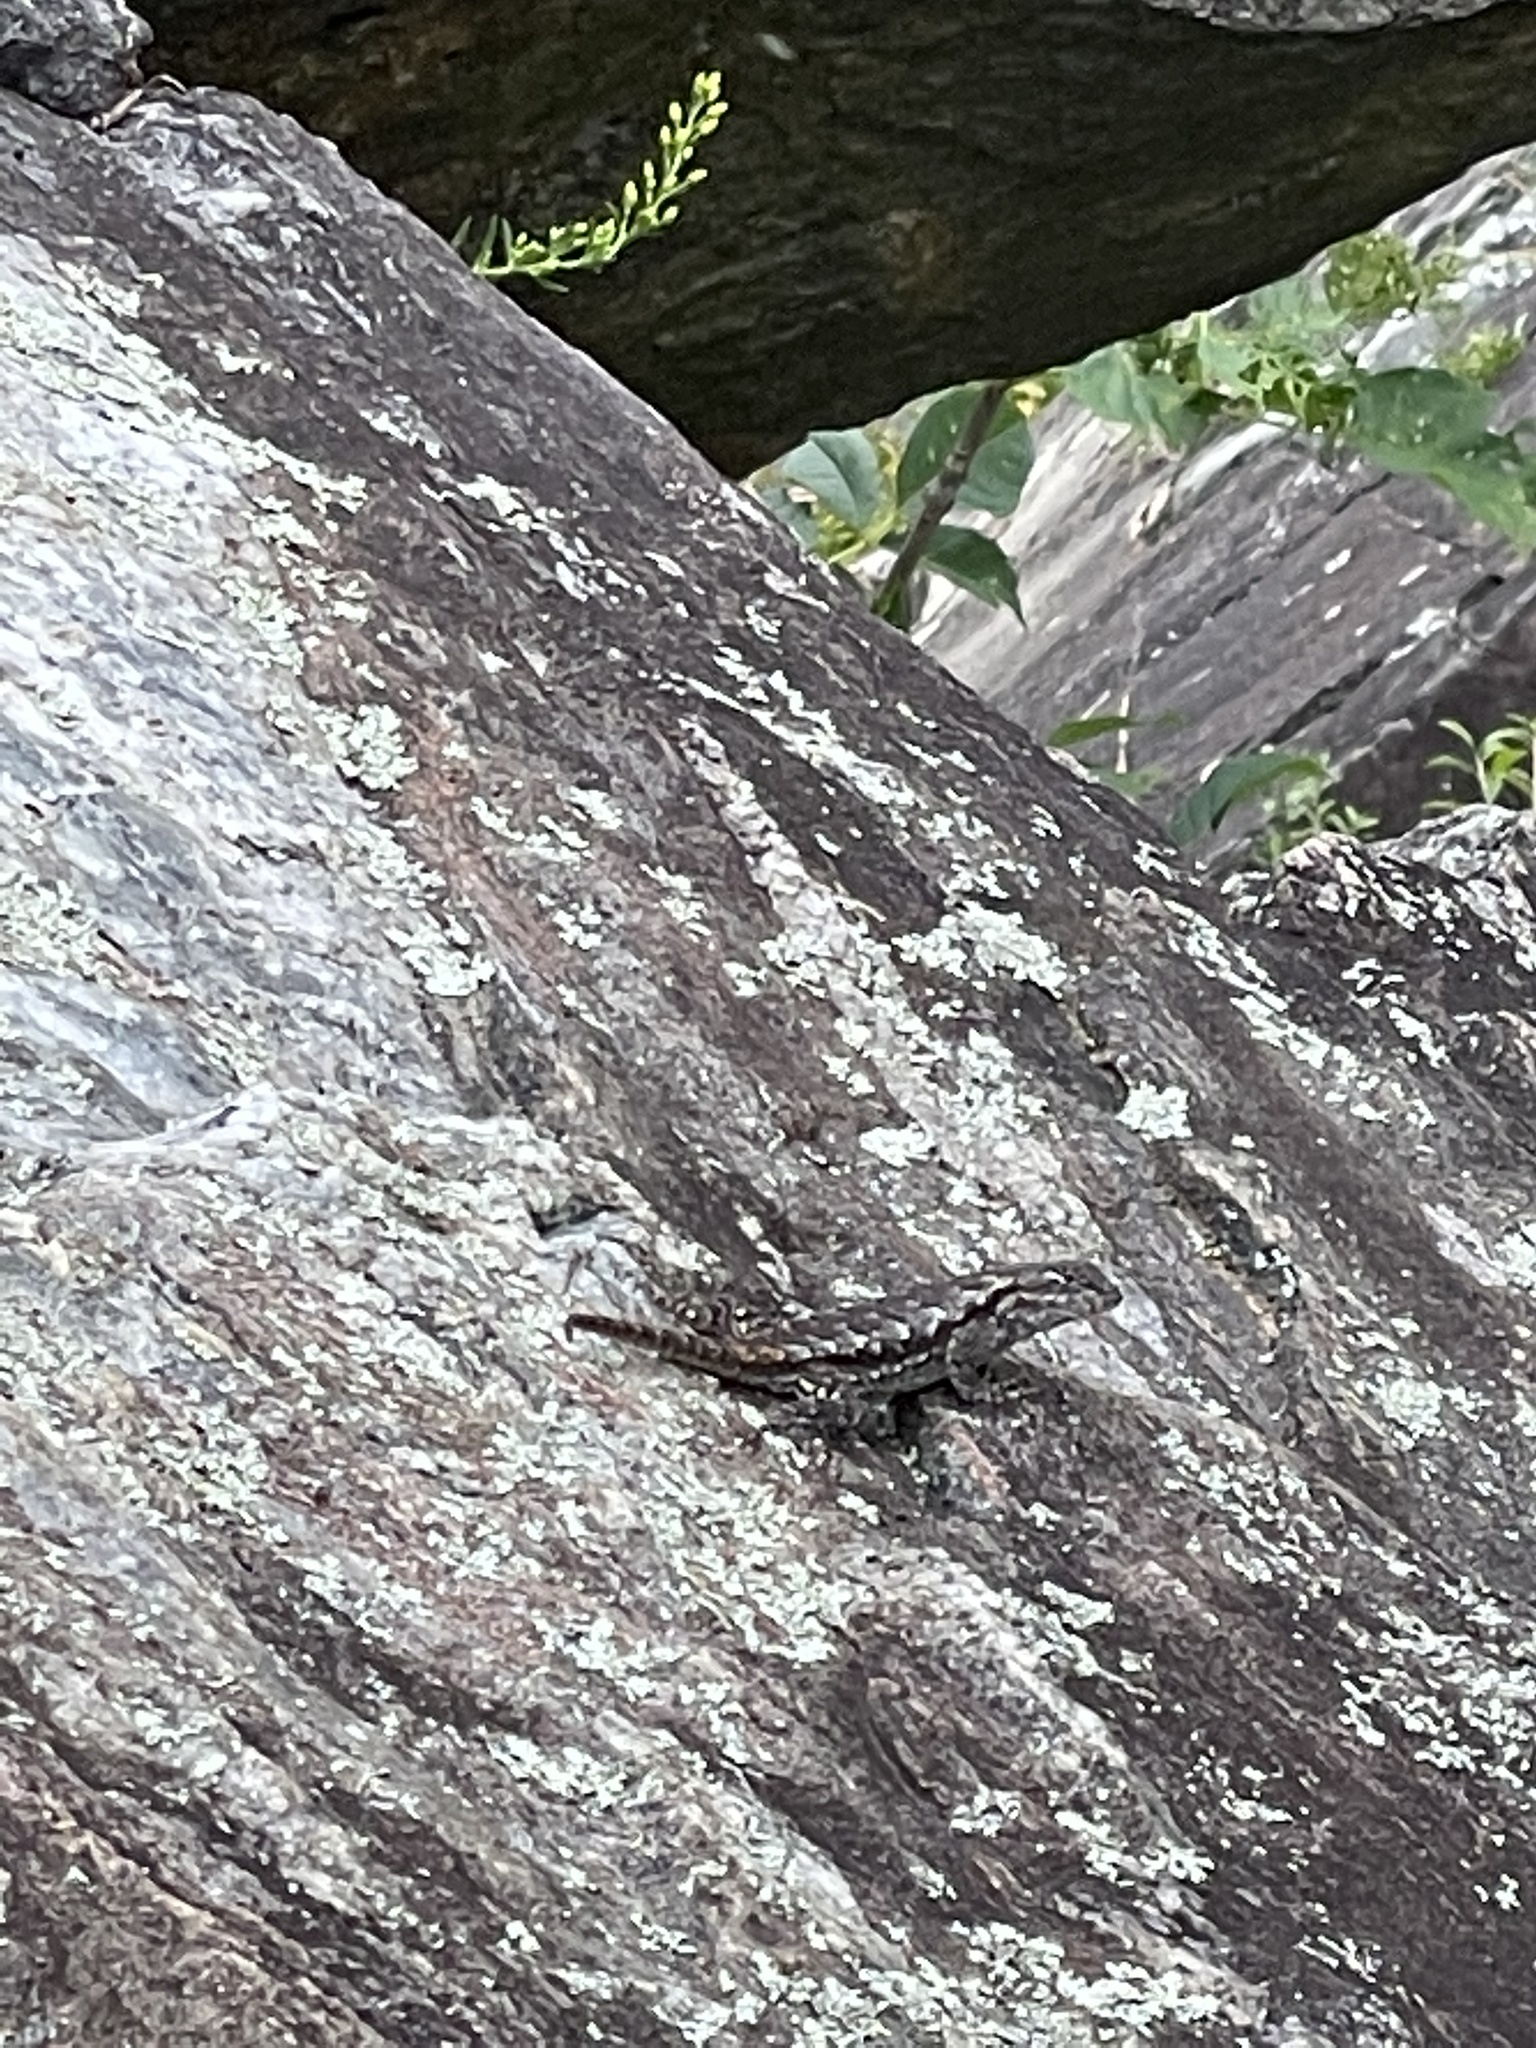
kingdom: Animalia
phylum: Chordata
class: Squamata
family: Phrynosomatidae
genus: Sceloporus
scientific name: Sceloporus undulatus
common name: Eastern fence lizard
